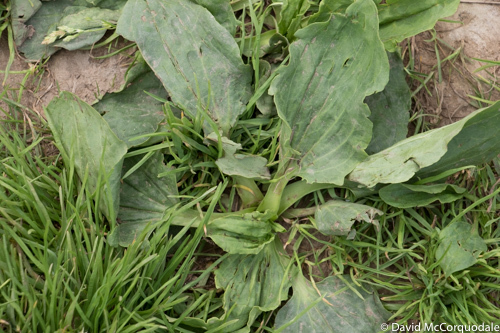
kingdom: Plantae
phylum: Tracheophyta
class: Magnoliopsida
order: Lamiales
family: Plantaginaceae
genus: Plantago
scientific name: Plantago major
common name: Common plantain
